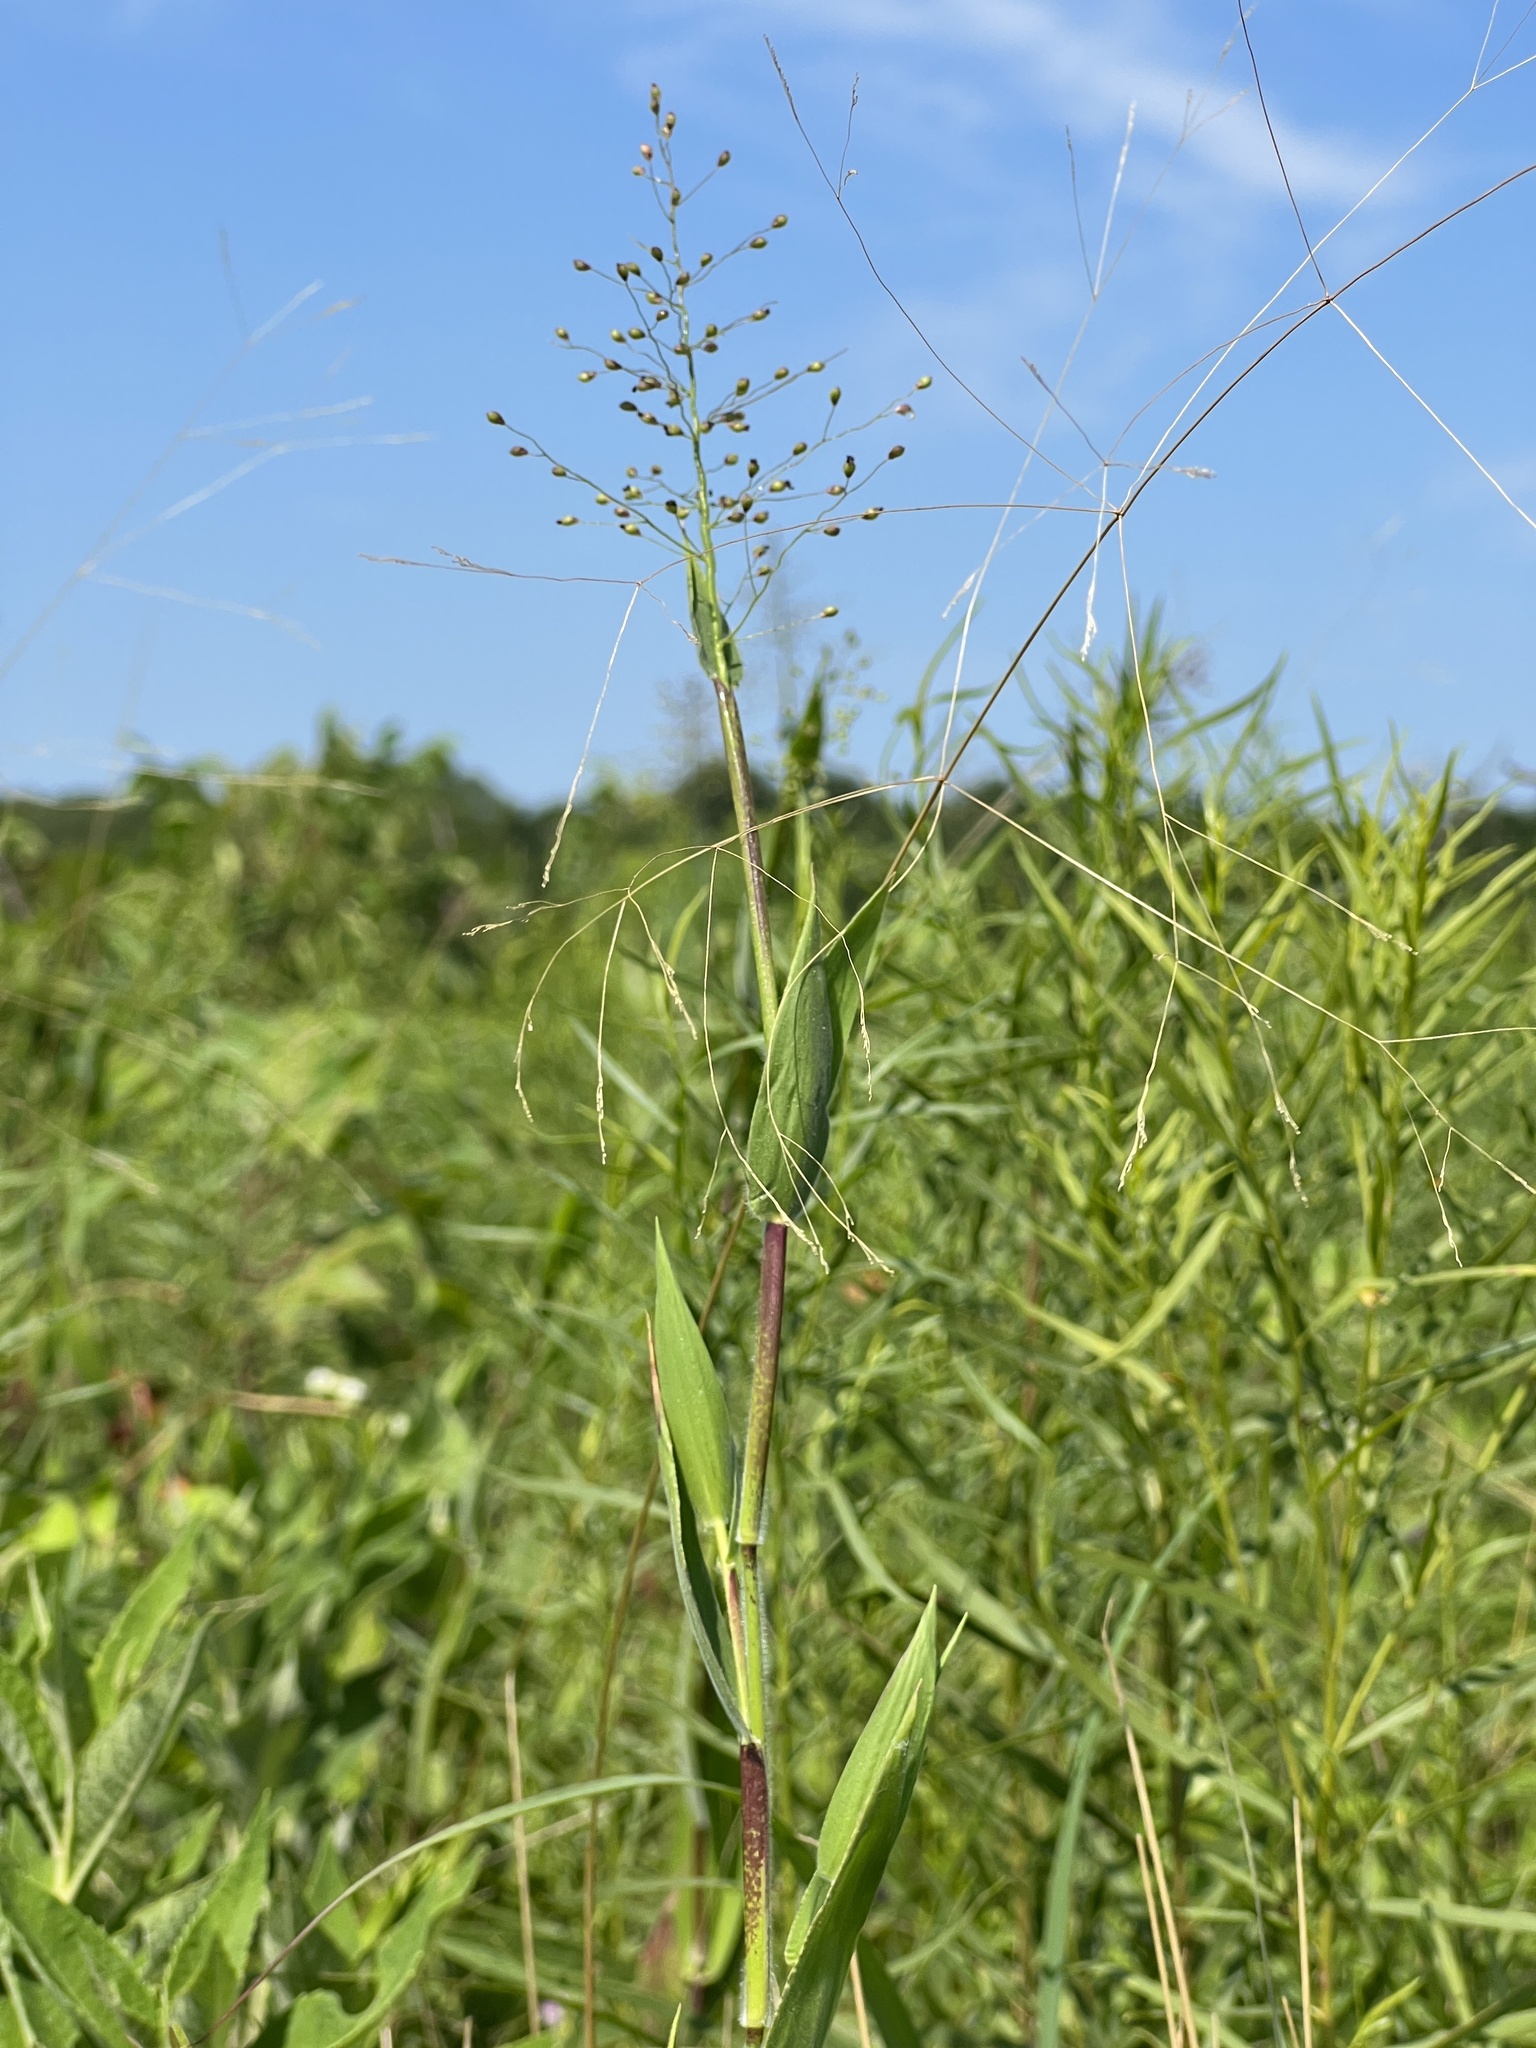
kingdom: Plantae
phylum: Tracheophyta
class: Liliopsida
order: Poales
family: Poaceae
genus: Dichanthelium
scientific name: Dichanthelium scoparium
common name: Velvety panic grass
